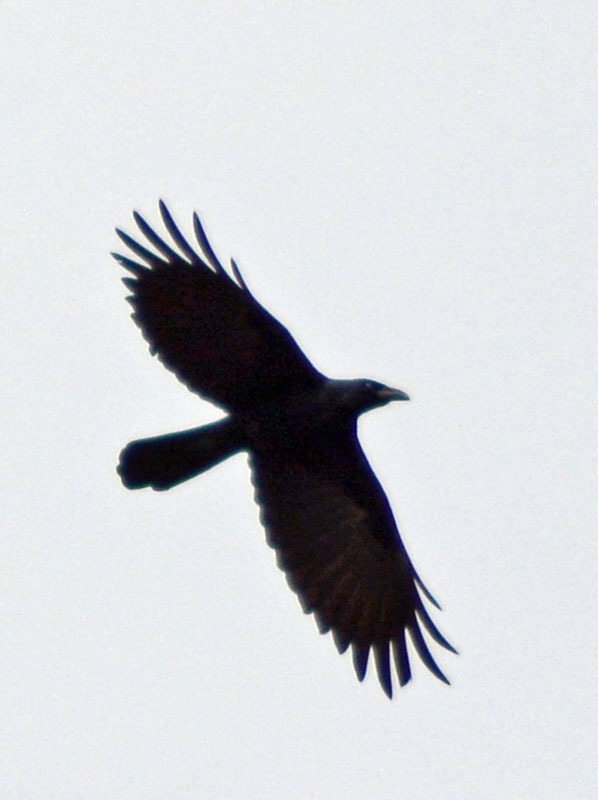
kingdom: Animalia
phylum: Chordata
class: Aves
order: Passeriformes
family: Corvidae
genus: Corvus
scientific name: Corvus sinaloae
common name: Sinaloa crow
